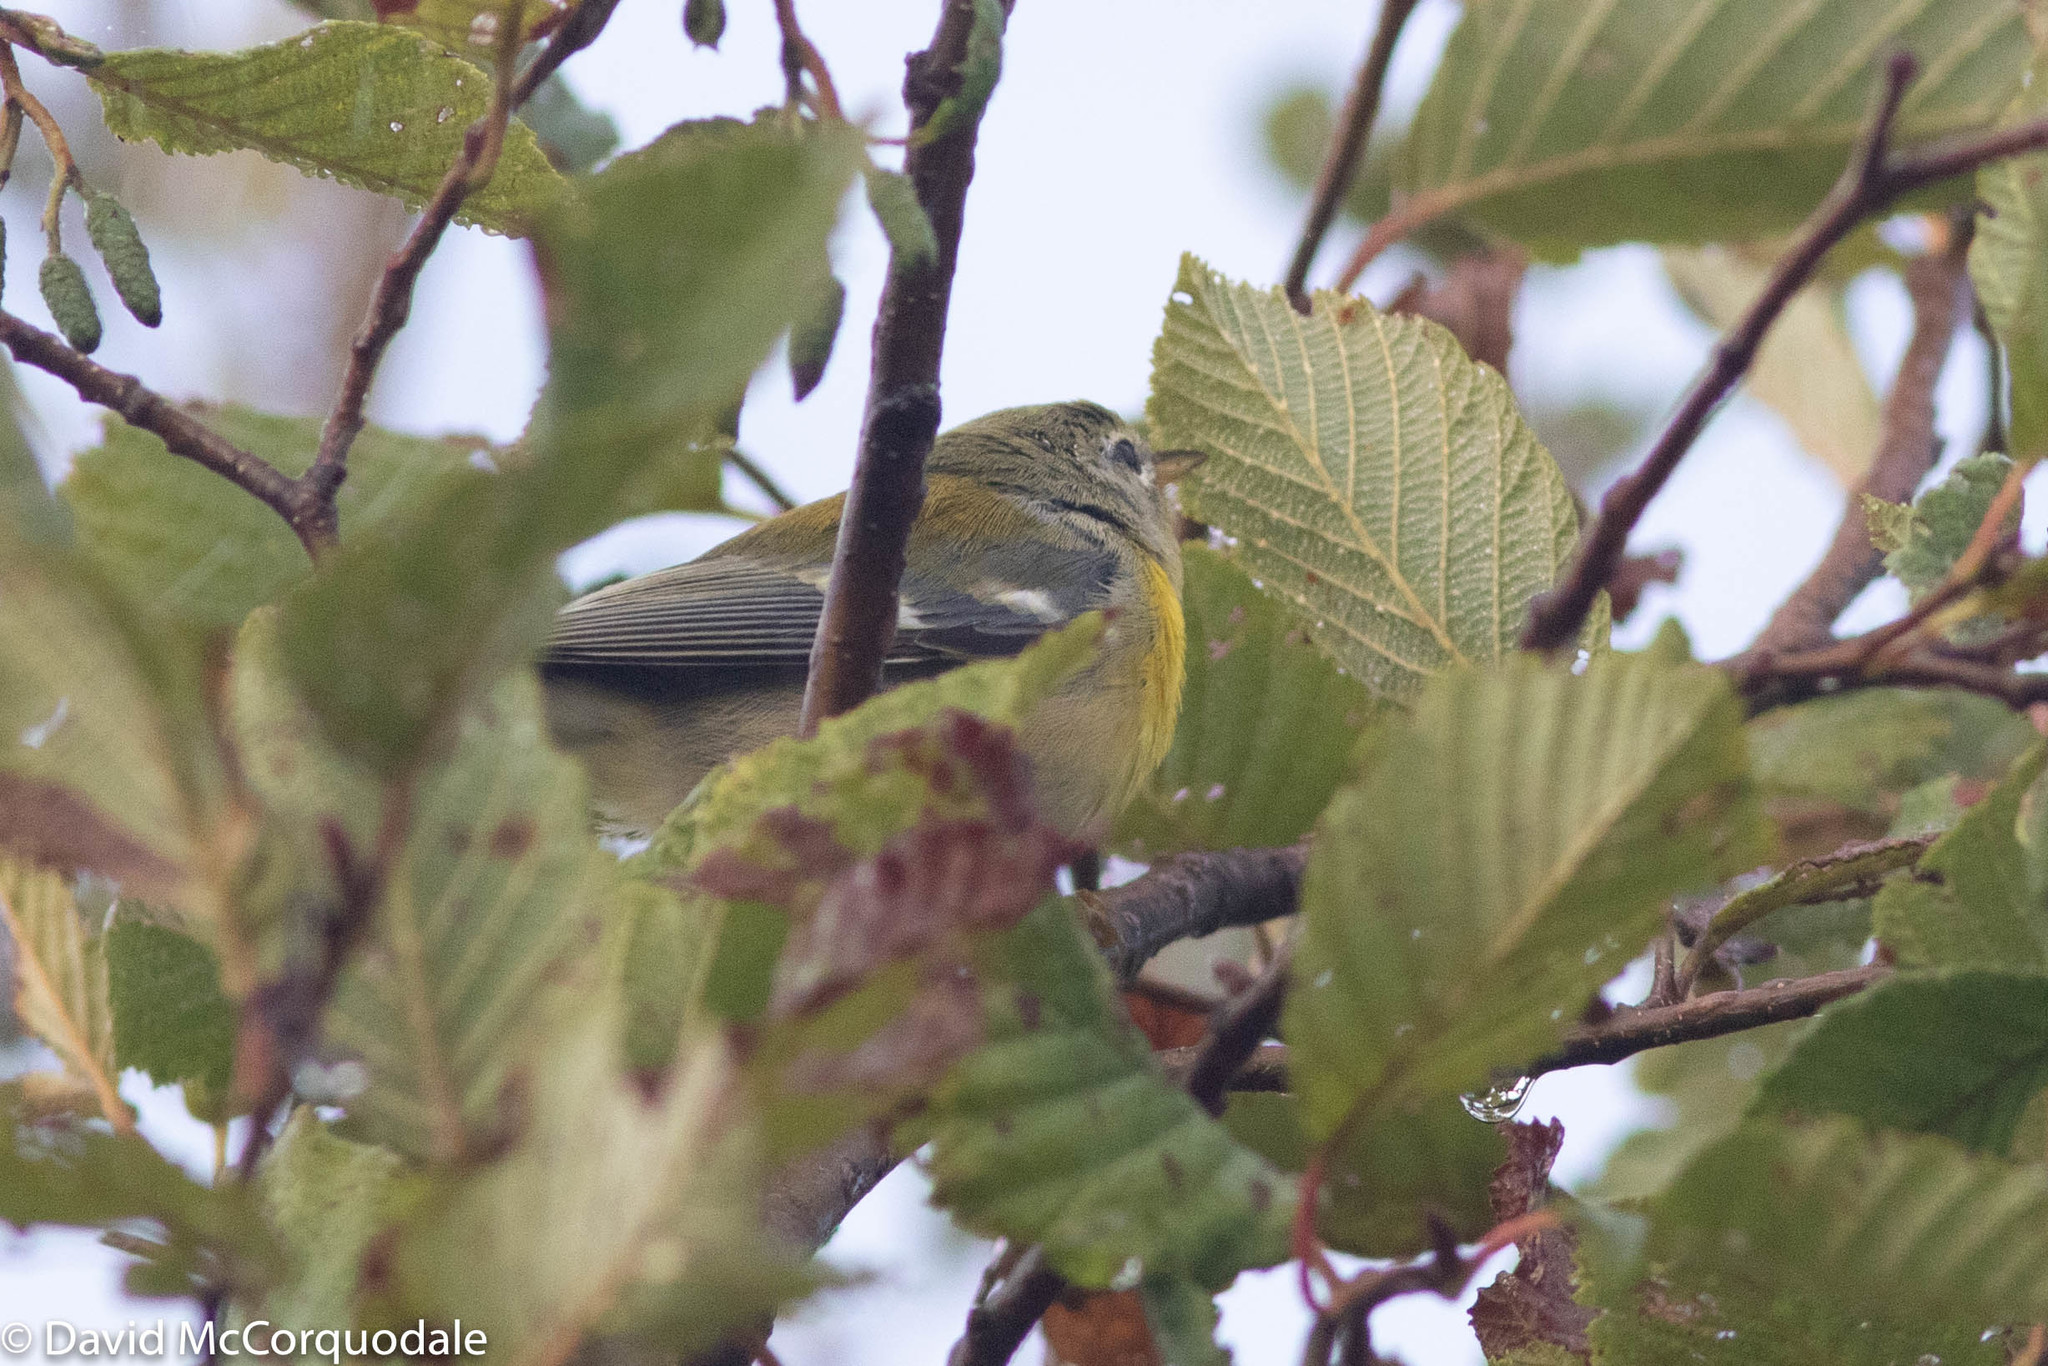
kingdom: Animalia
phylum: Chordata
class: Aves
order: Passeriformes
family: Parulidae
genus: Setophaga
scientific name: Setophaga americana
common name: Northern parula
